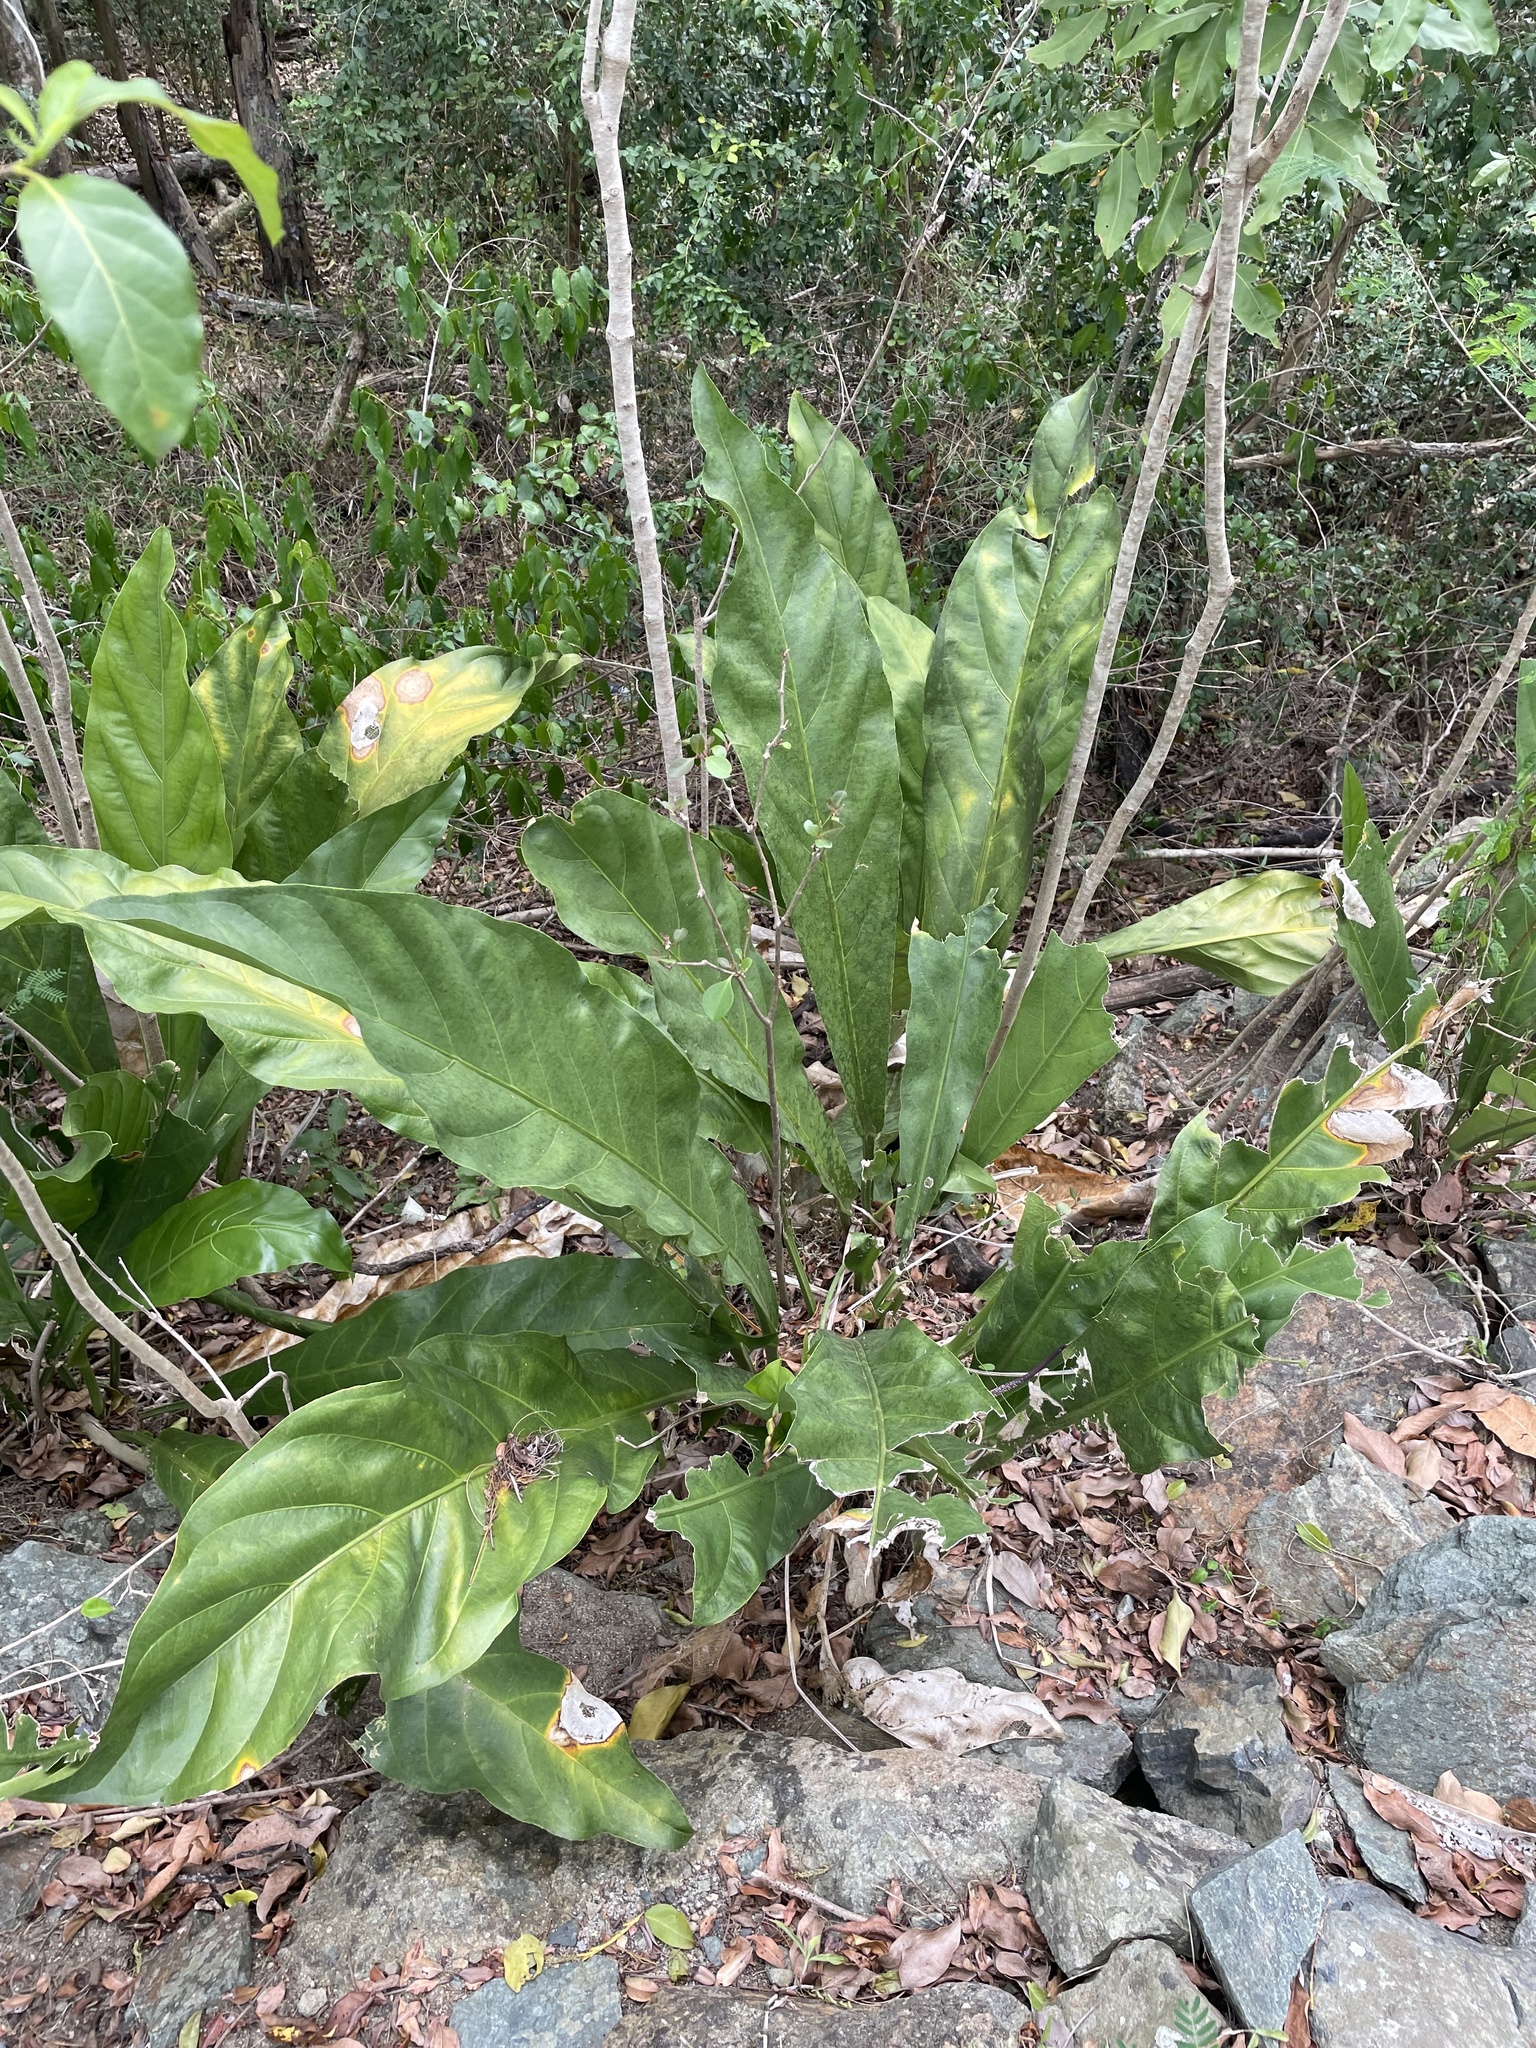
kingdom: Plantae
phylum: Tracheophyta
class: Liliopsida
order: Alismatales
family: Araceae
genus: Anthurium
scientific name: Anthurium crenatum
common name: Scalloped laceleaf
